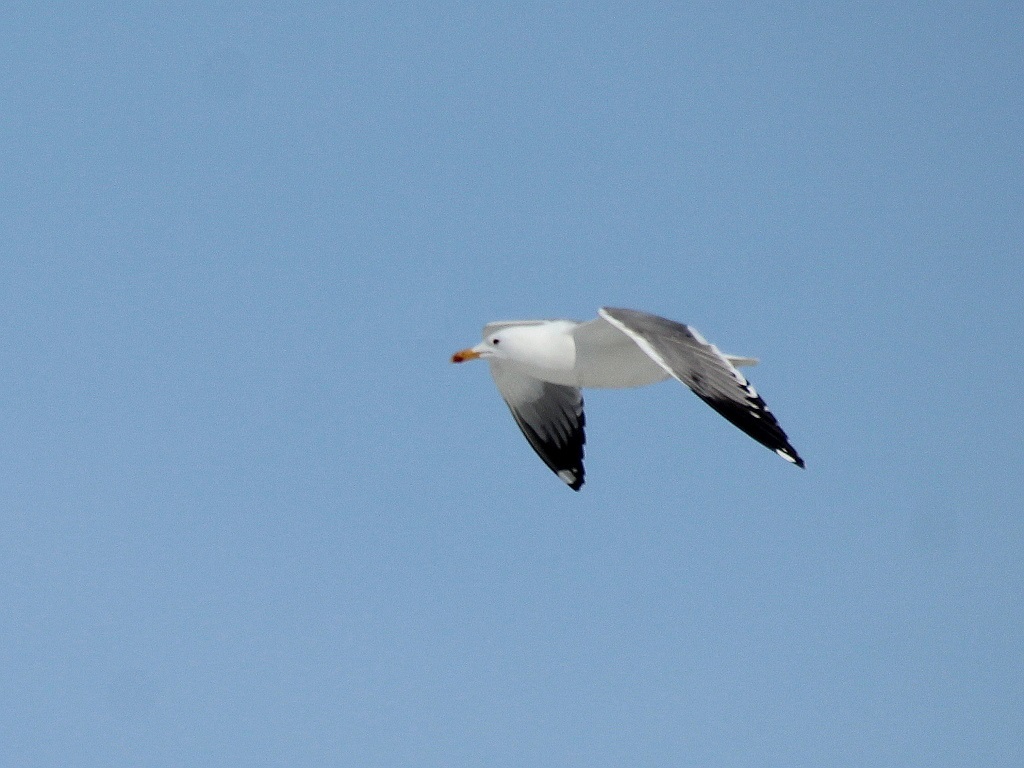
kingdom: Animalia
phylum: Chordata
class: Aves
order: Charadriiformes
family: Laridae
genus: Larus
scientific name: Larus fuscus
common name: Lesser black-backed gull
